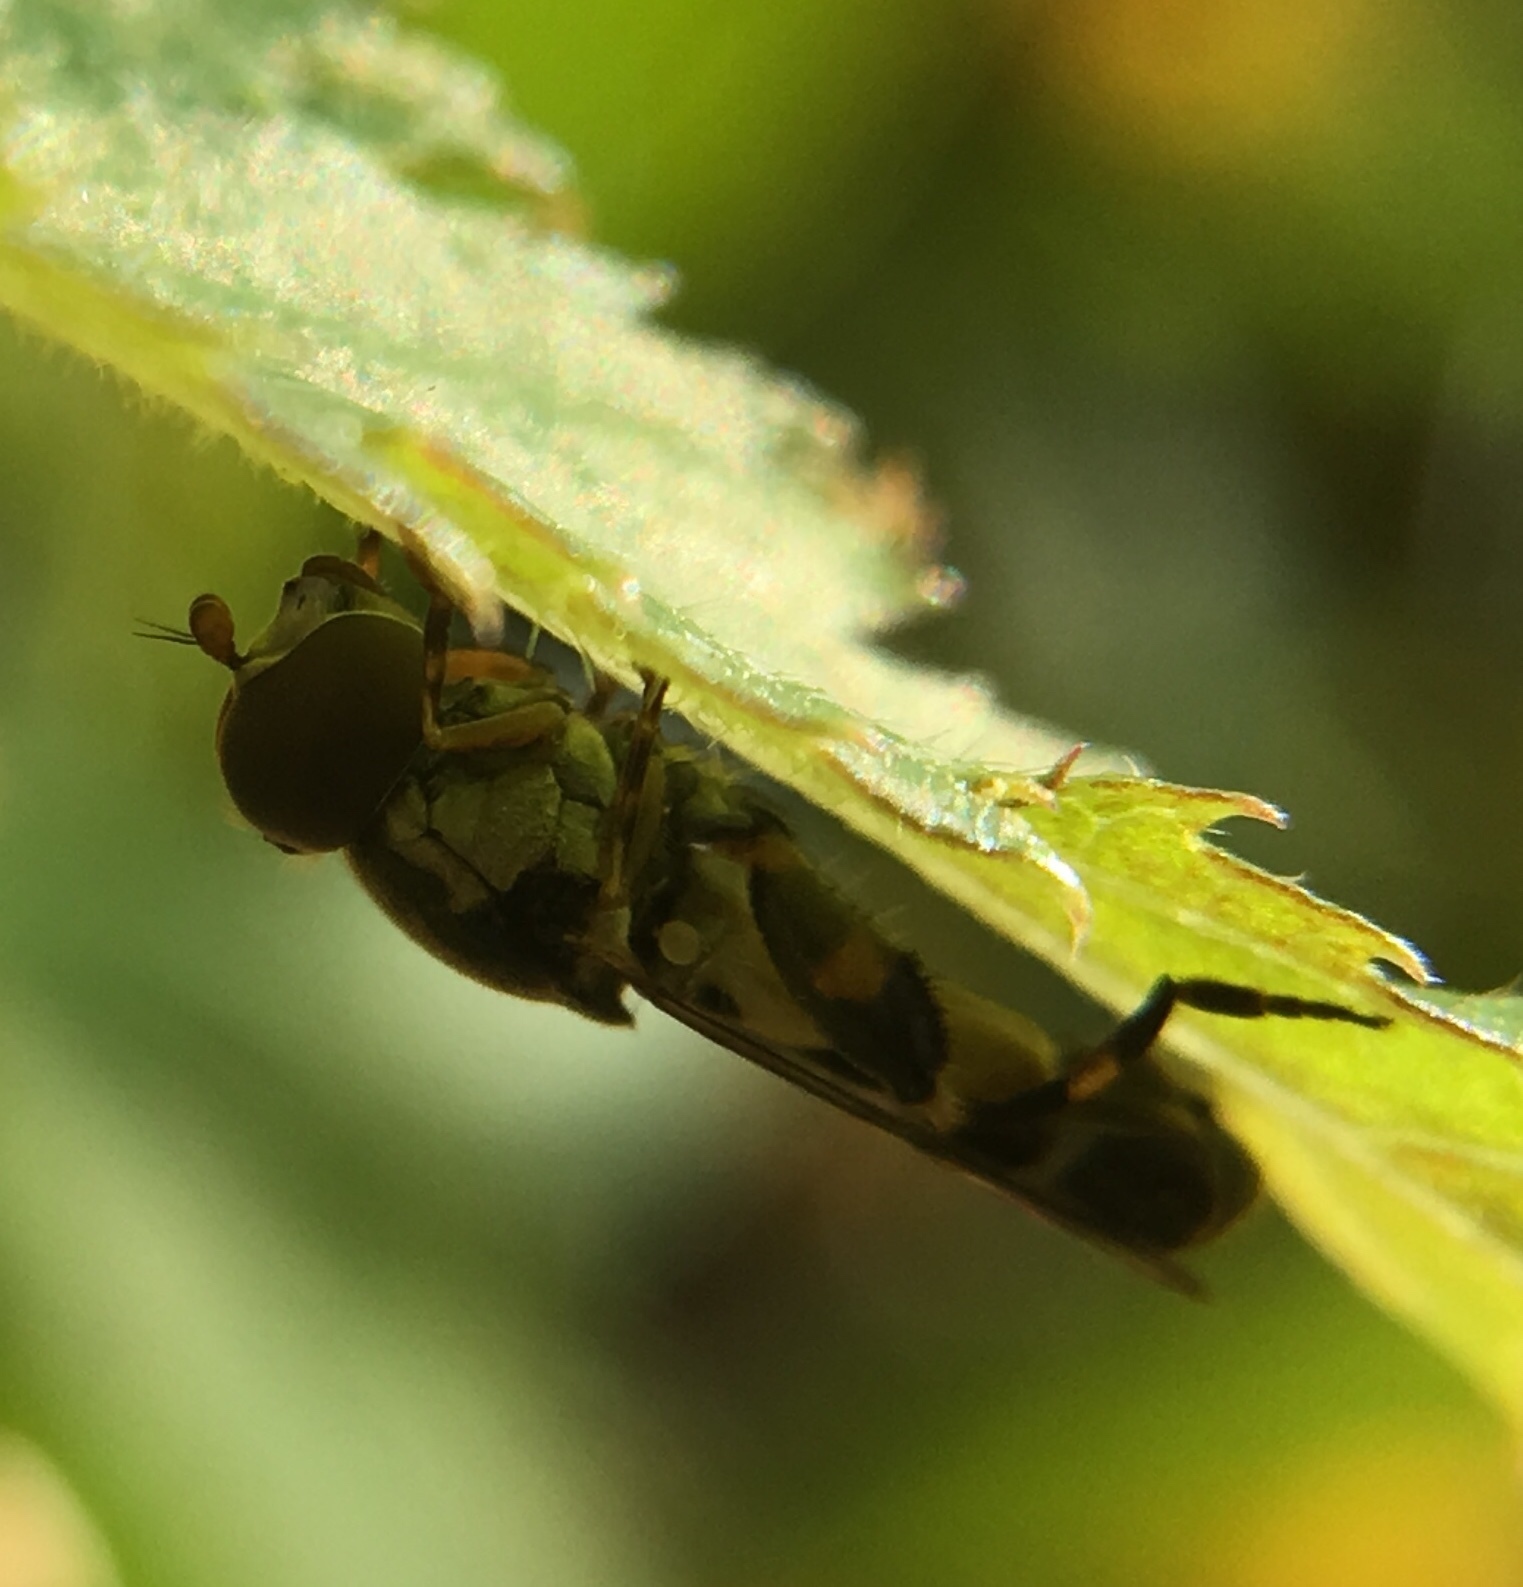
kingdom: Animalia
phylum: Arthropoda
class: Insecta
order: Diptera
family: Syrphidae
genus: Syritta
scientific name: Syritta pipiens
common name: Hover fly
